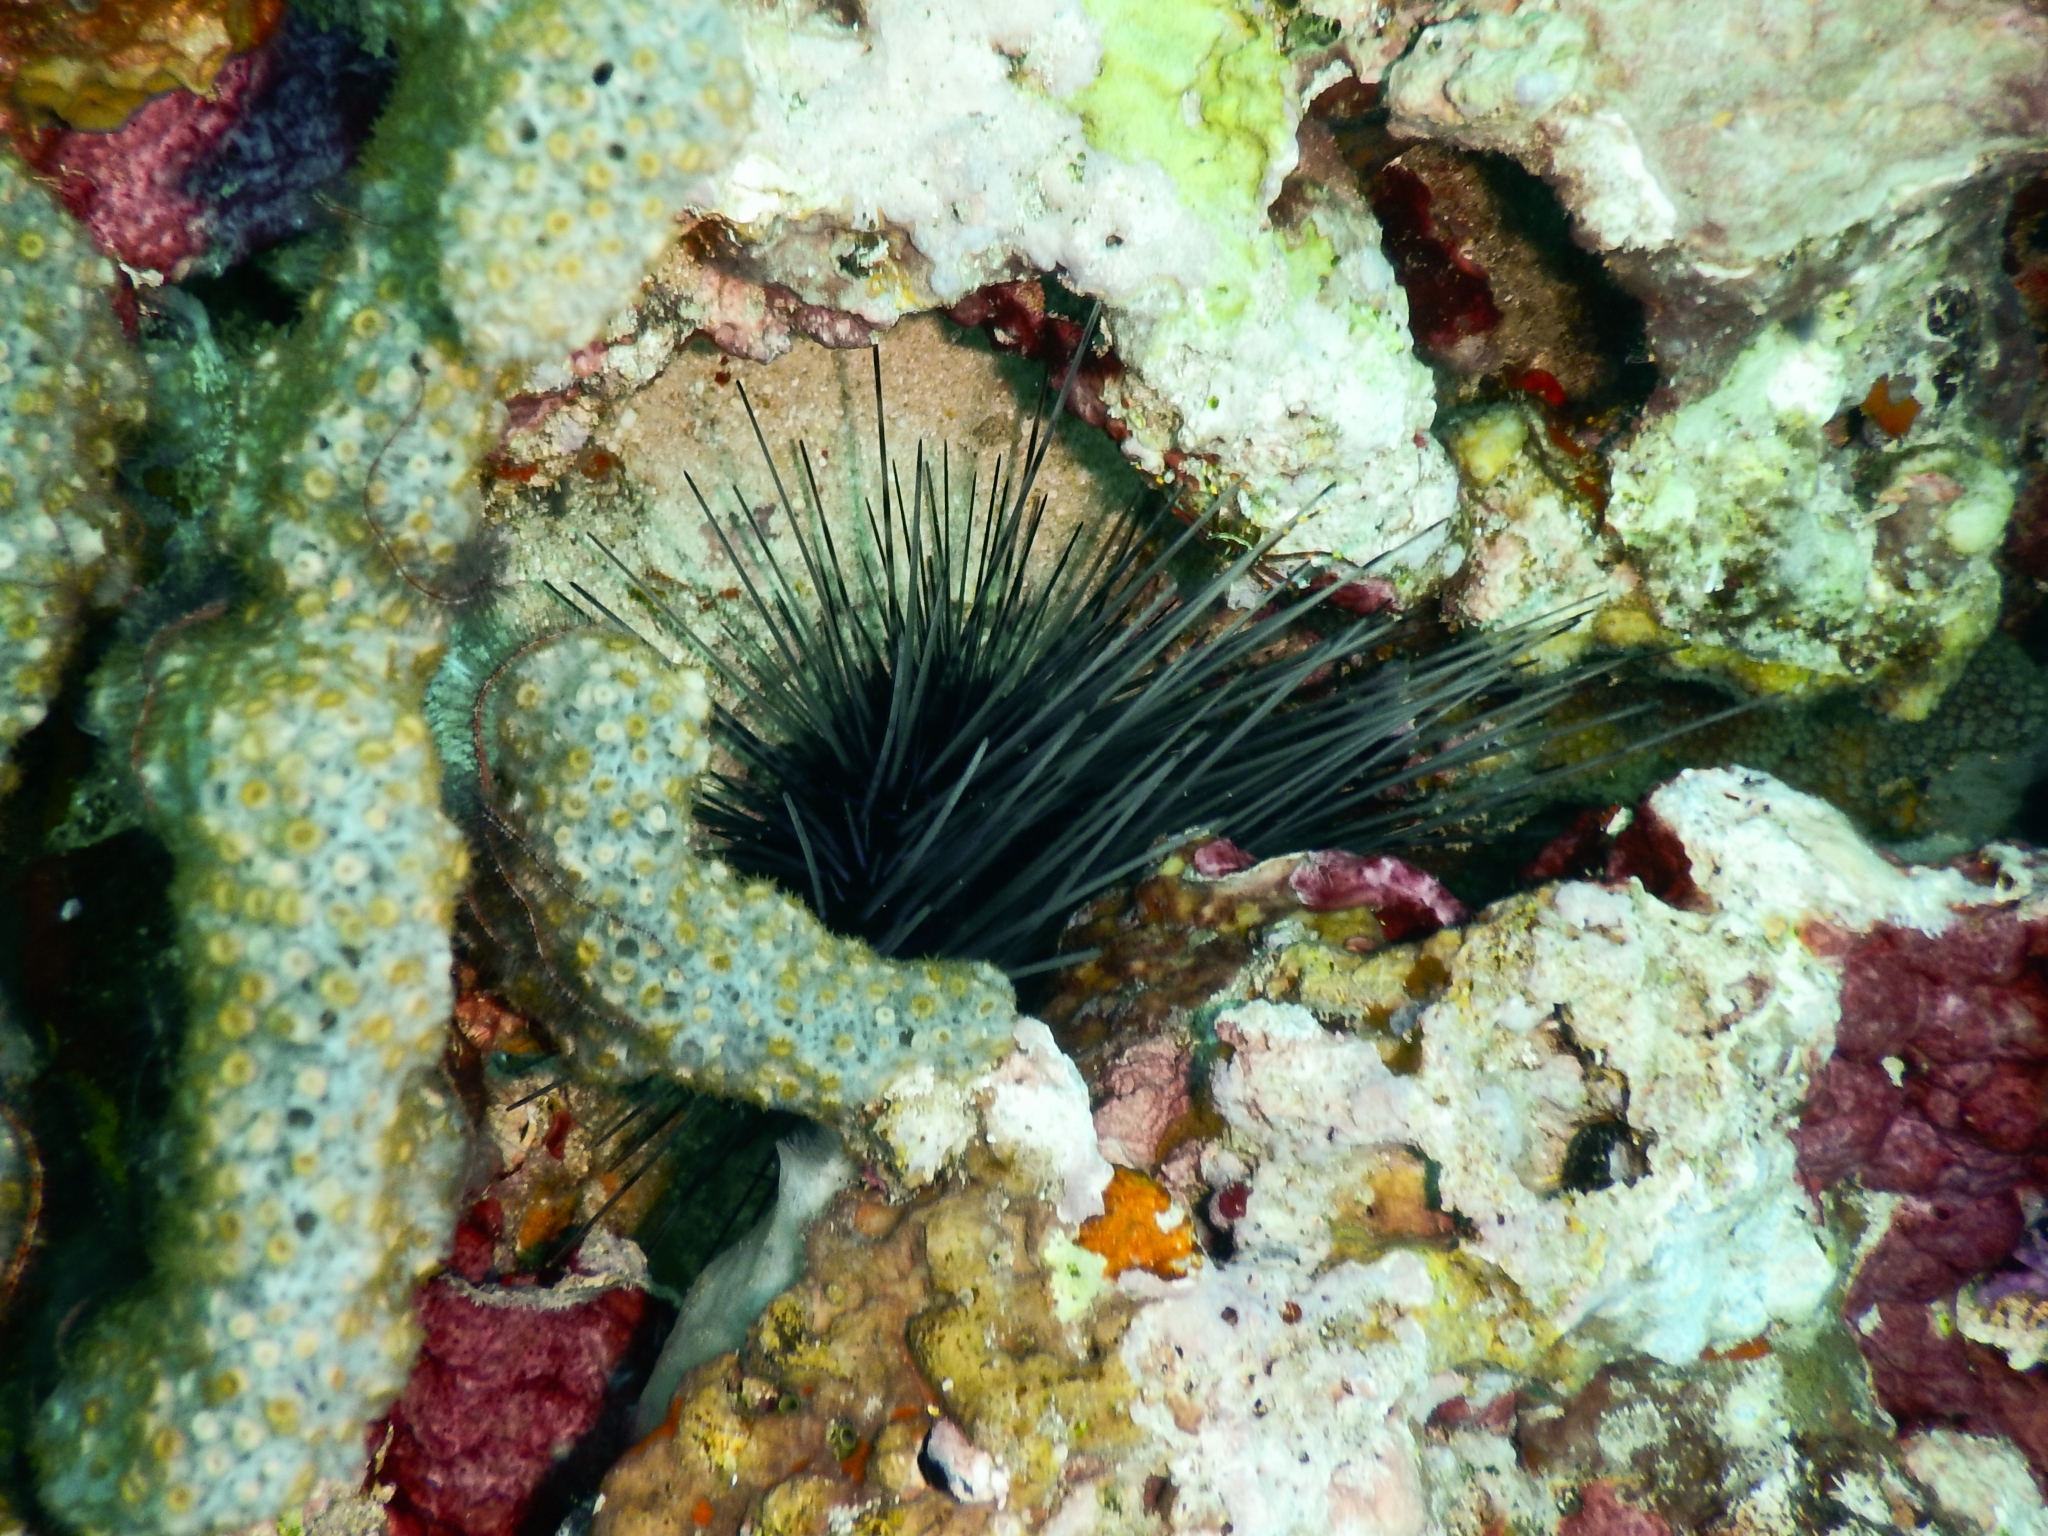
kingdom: Animalia
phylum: Echinodermata
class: Echinoidea
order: Diadematoida
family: Diadematidae
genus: Diadema
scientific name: Diadema antillarum
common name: Spiny urchin
